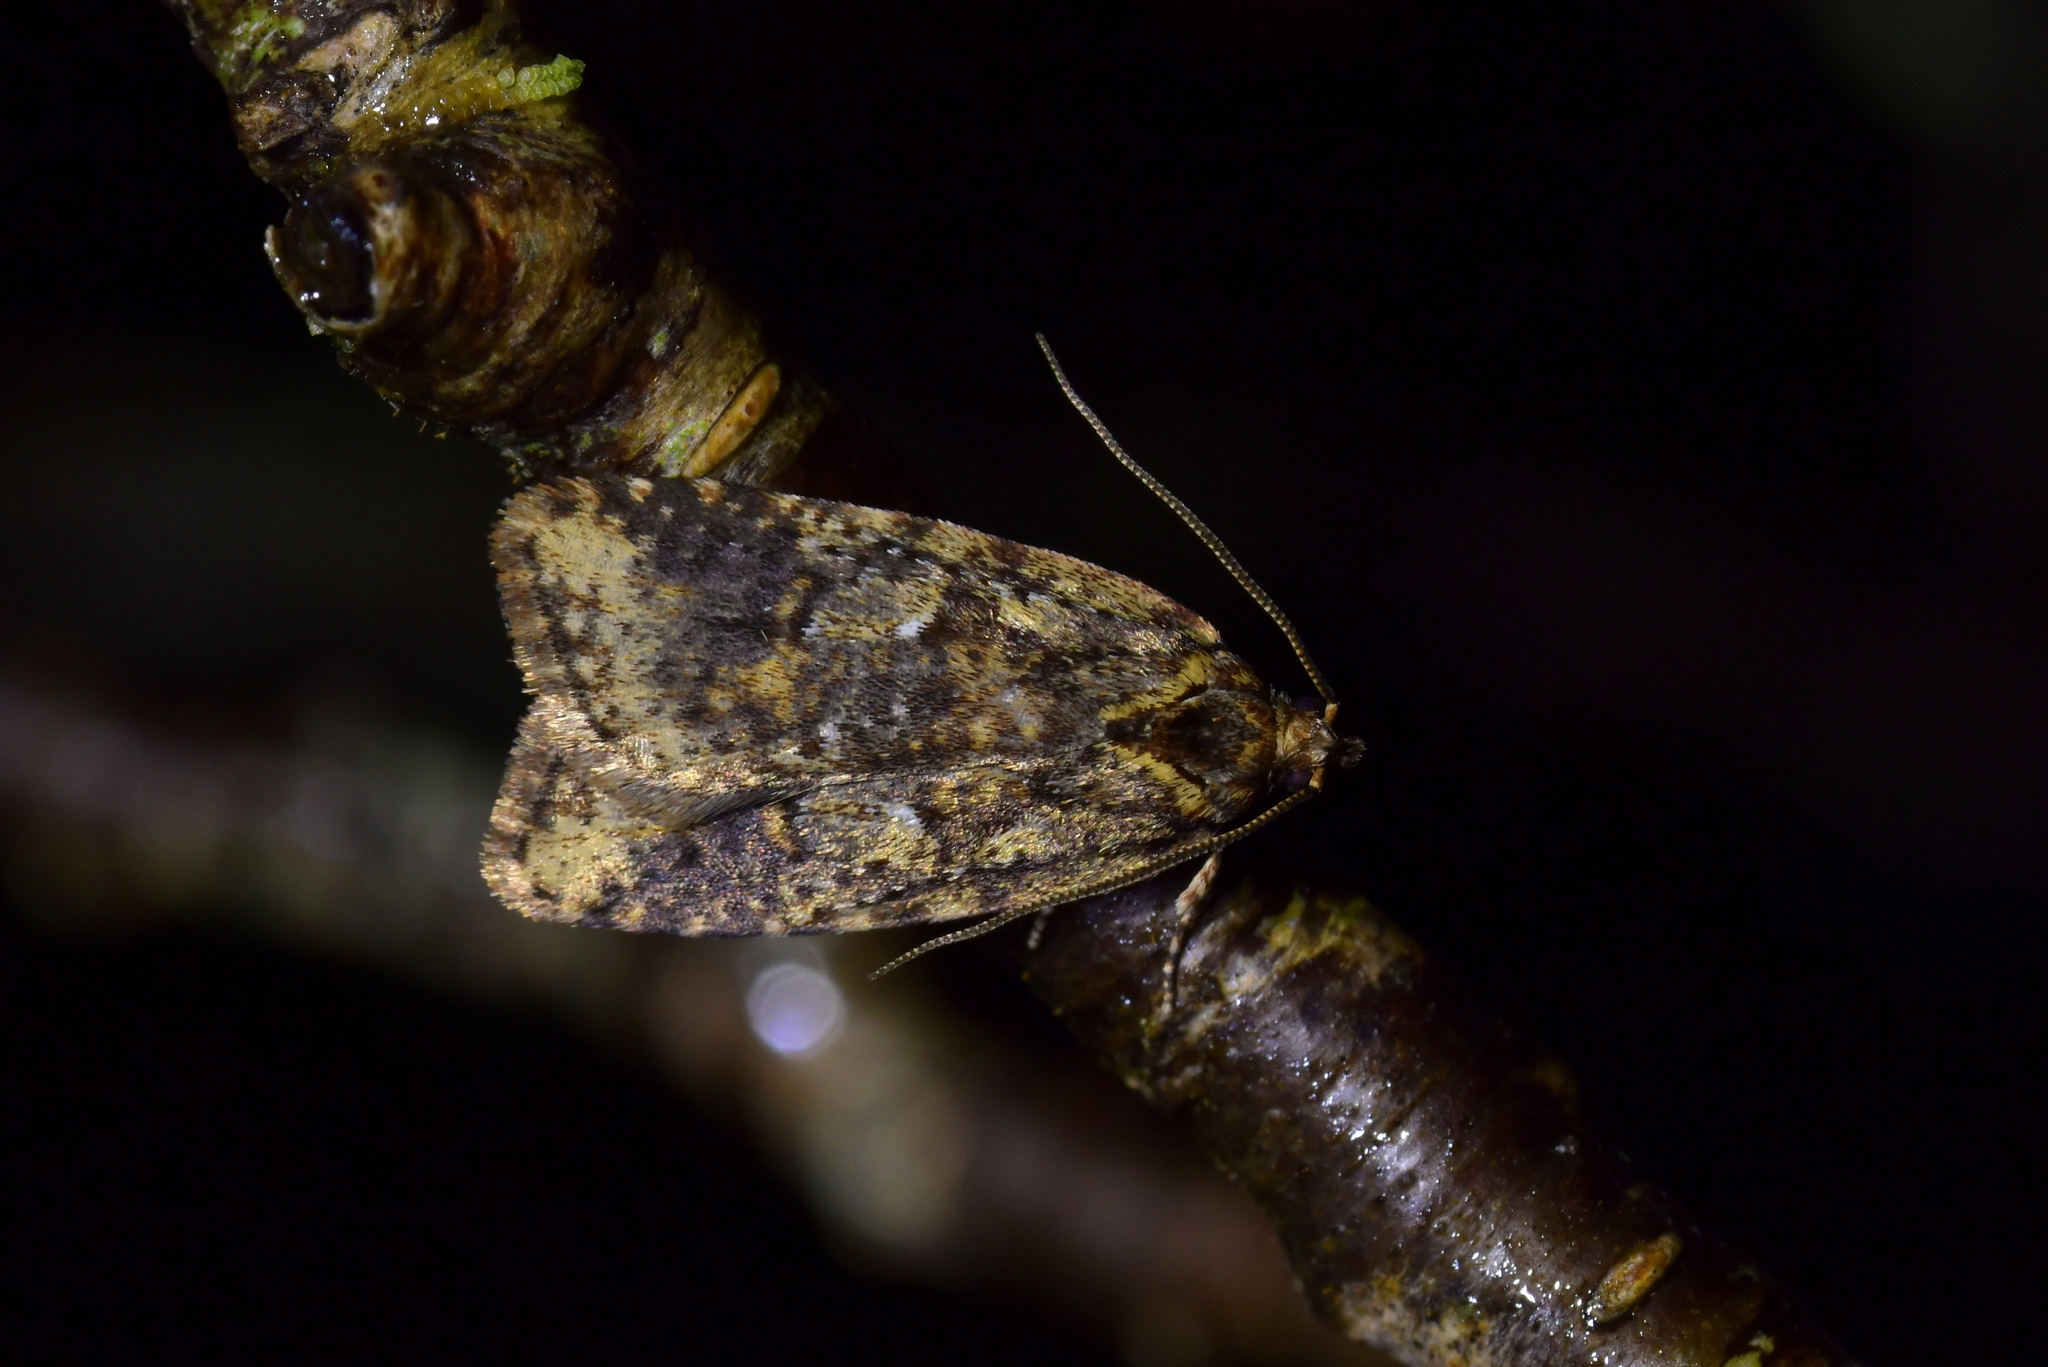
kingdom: Animalia
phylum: Arthropoda
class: Insecta
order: Lepidoptera
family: Oecophoridae
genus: Proteodes
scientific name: Proteodes profunda
